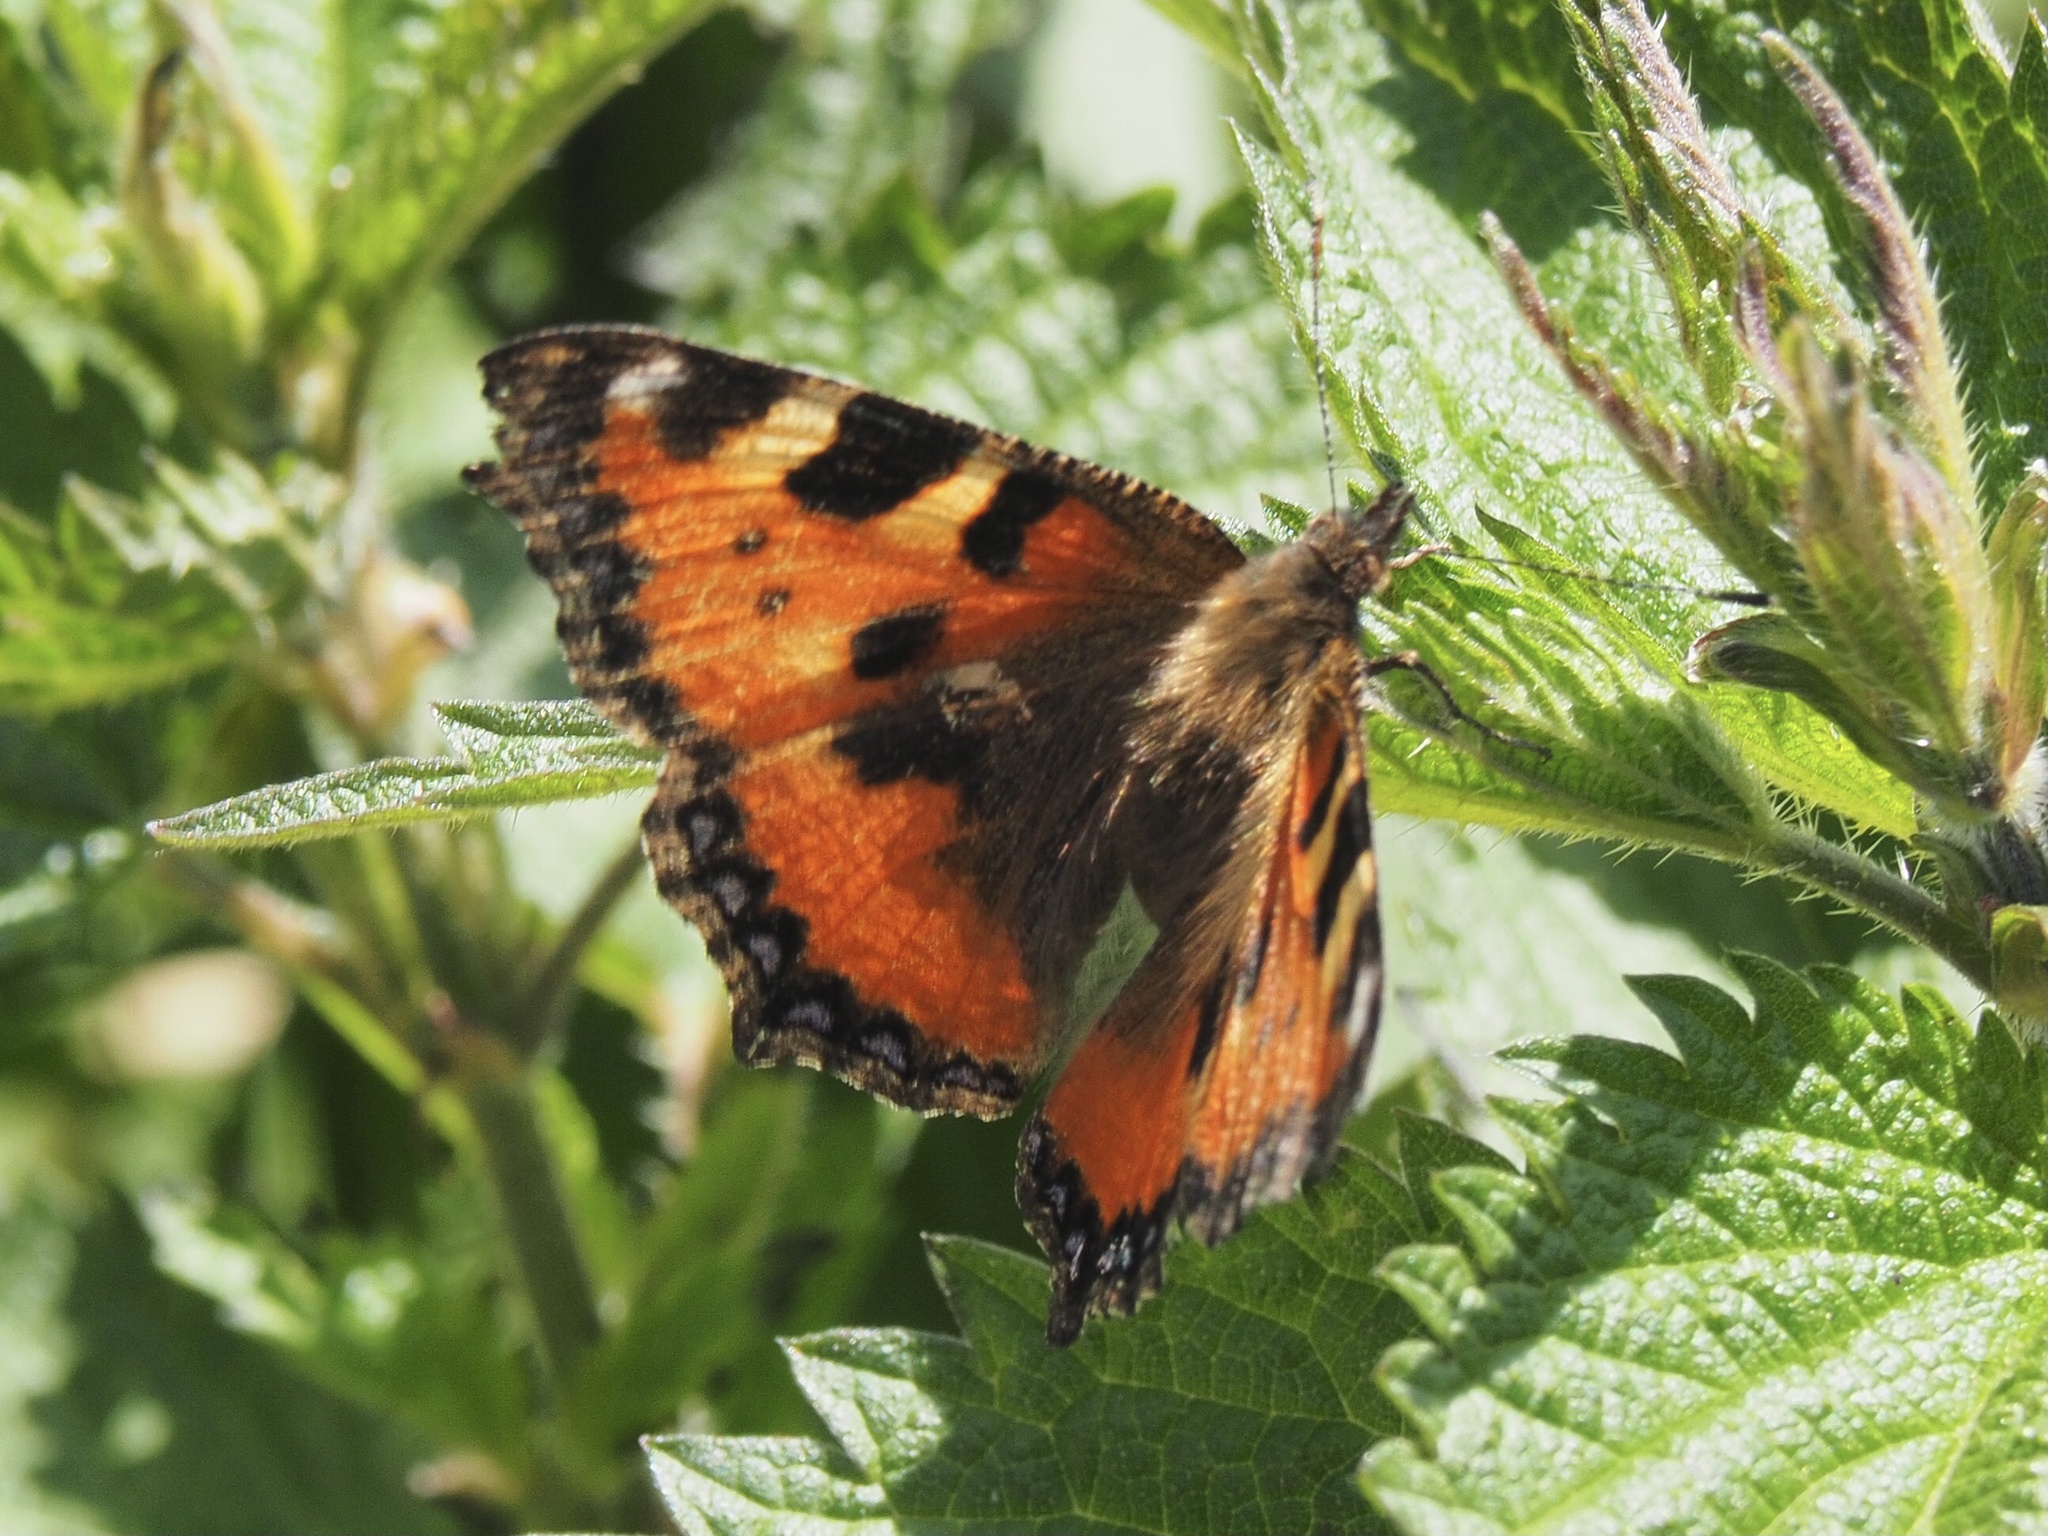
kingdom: Animalia
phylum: Arthropoda
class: Insecta
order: Lepidoptera
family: Nymphalidae
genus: Aglais
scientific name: Aglais urticae
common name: Small tortoiseshell
